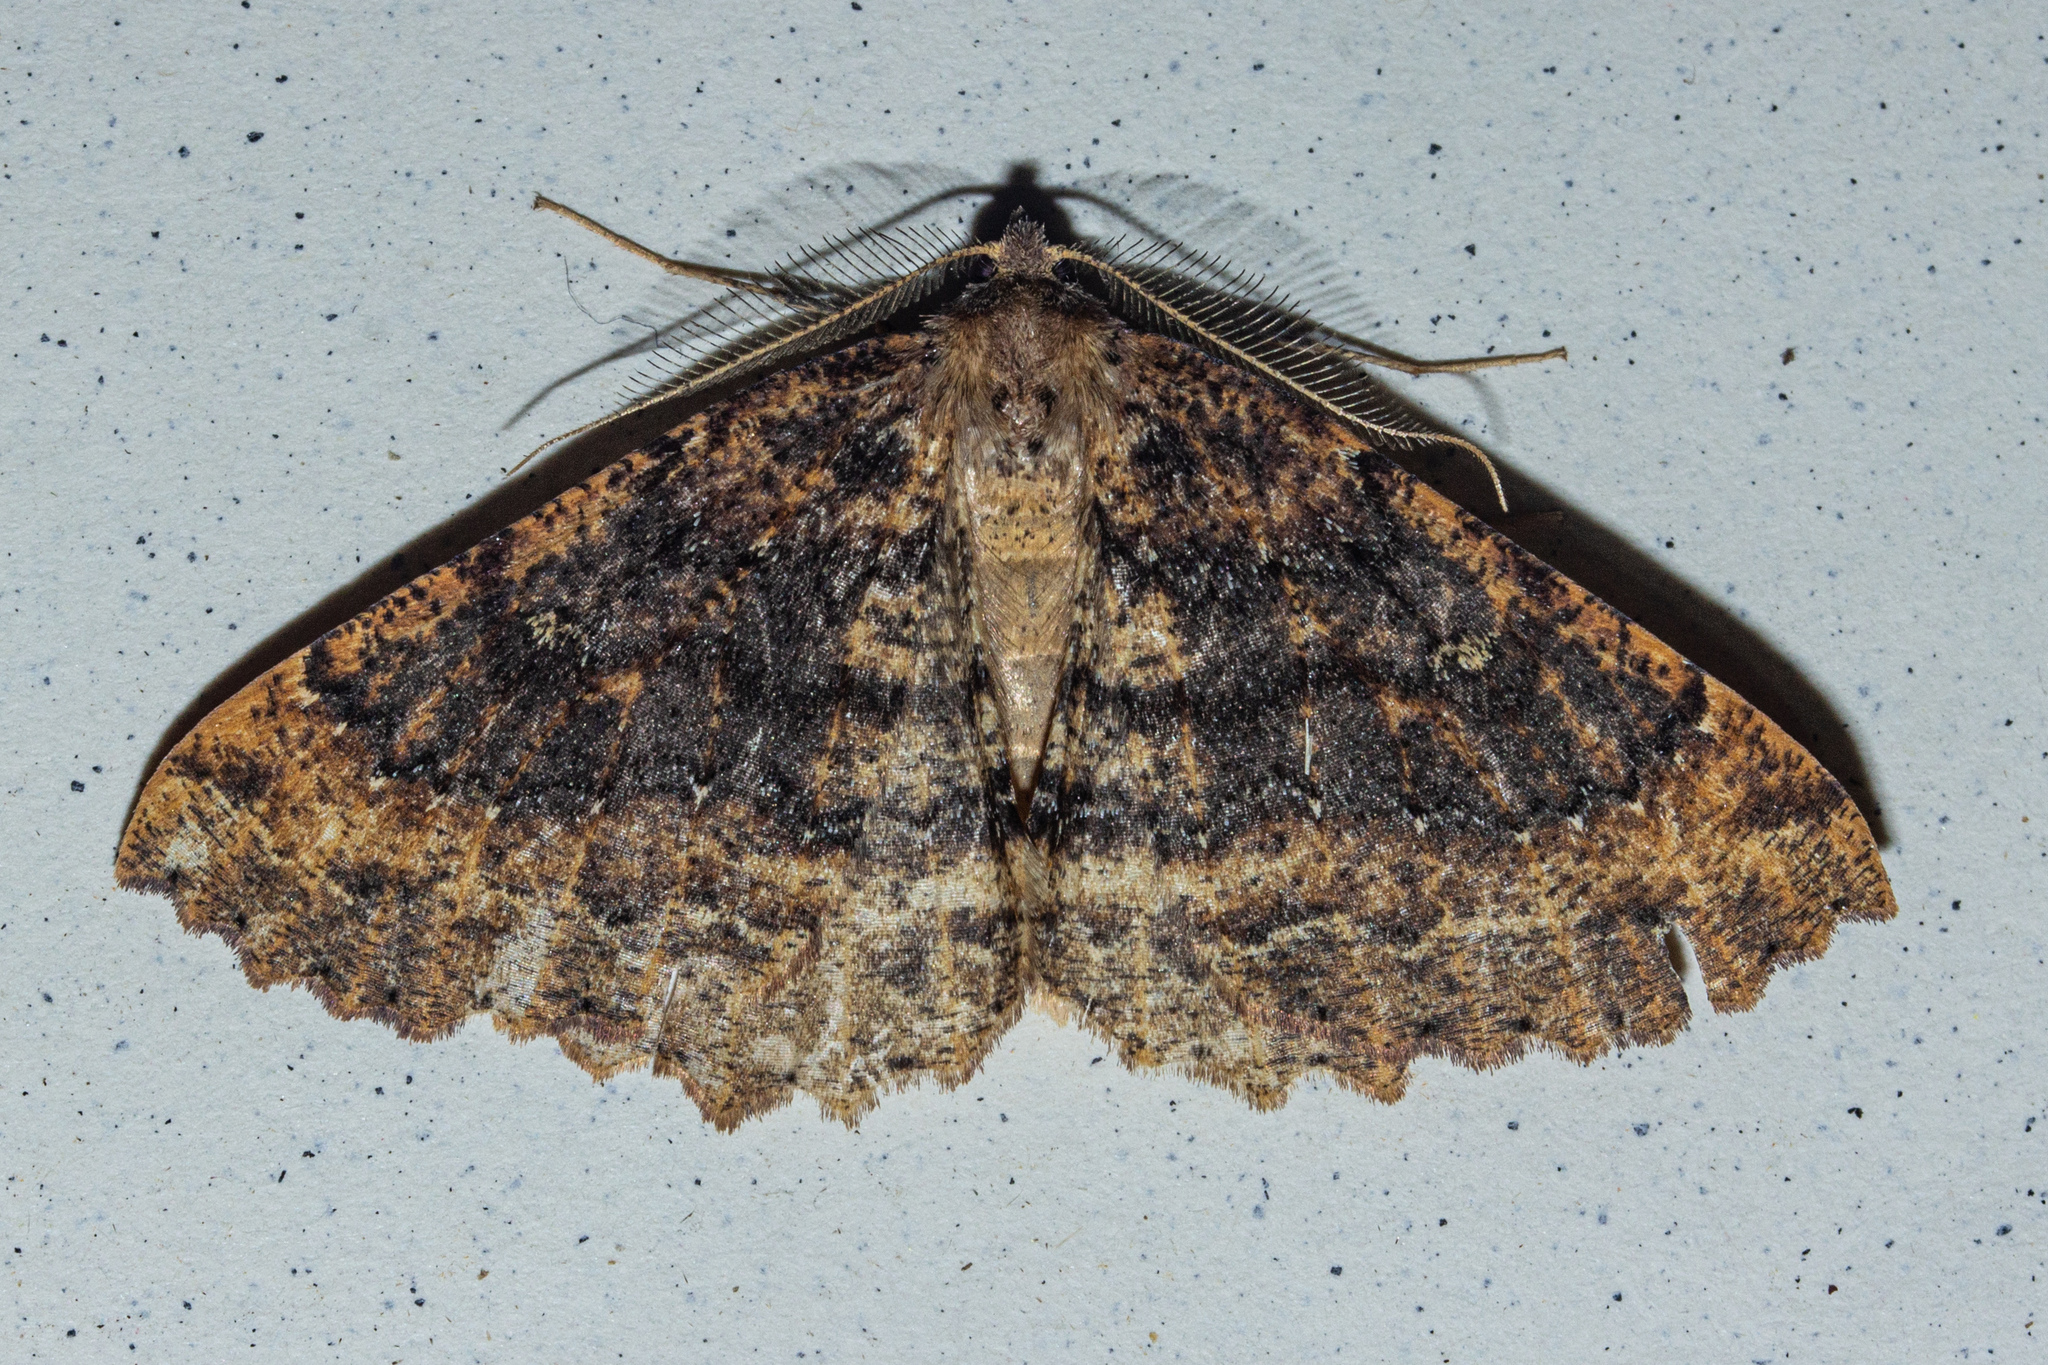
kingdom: Animalia
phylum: Arthropoda
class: Insecta
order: Lepidoptera
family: Geometridae
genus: Cleora
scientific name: Cleora scriptaria
